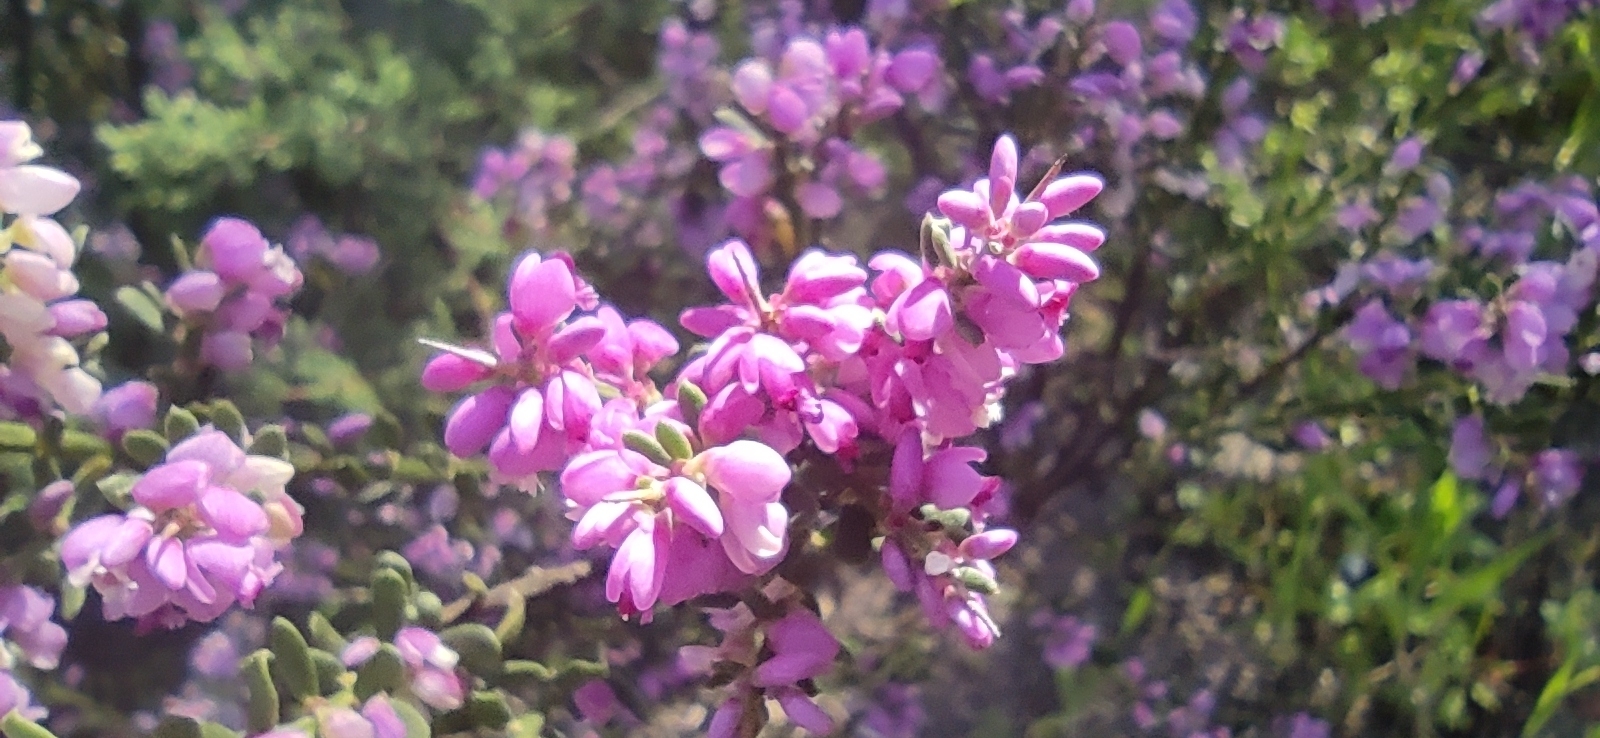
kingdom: Plantae
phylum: Tracheophyta
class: Magnoliopsida
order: Fabales
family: Polygalaceae
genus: Muraltia
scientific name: Muraltia spinosa
